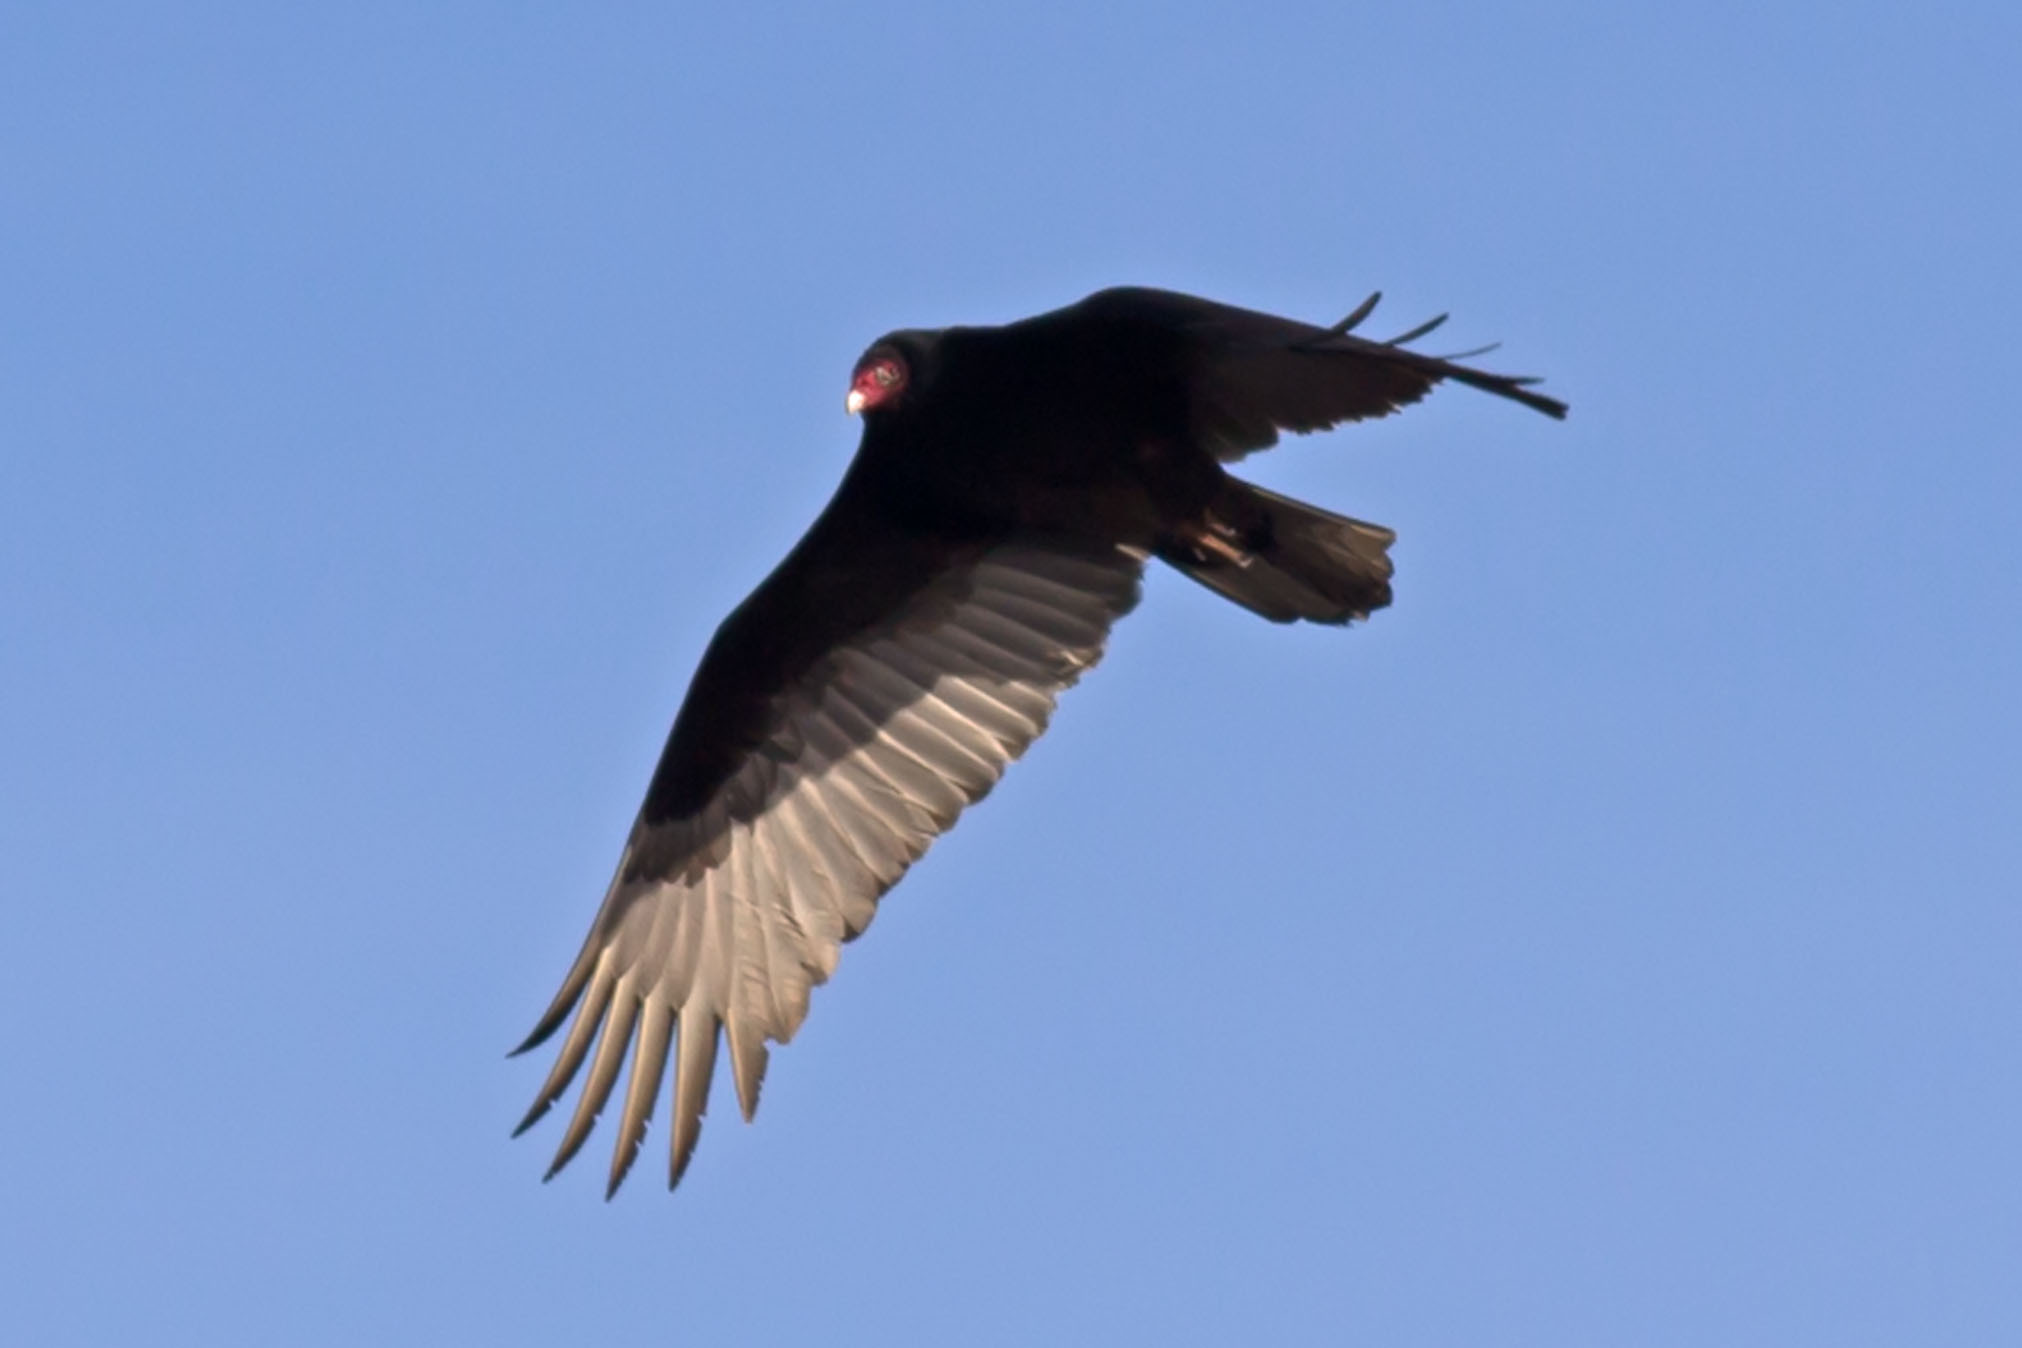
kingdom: Animalia
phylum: Chordata
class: Aves
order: Accipitriformes
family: Cathartidae
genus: Cathartes
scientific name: Cathartes aura
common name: Turkey vulture
